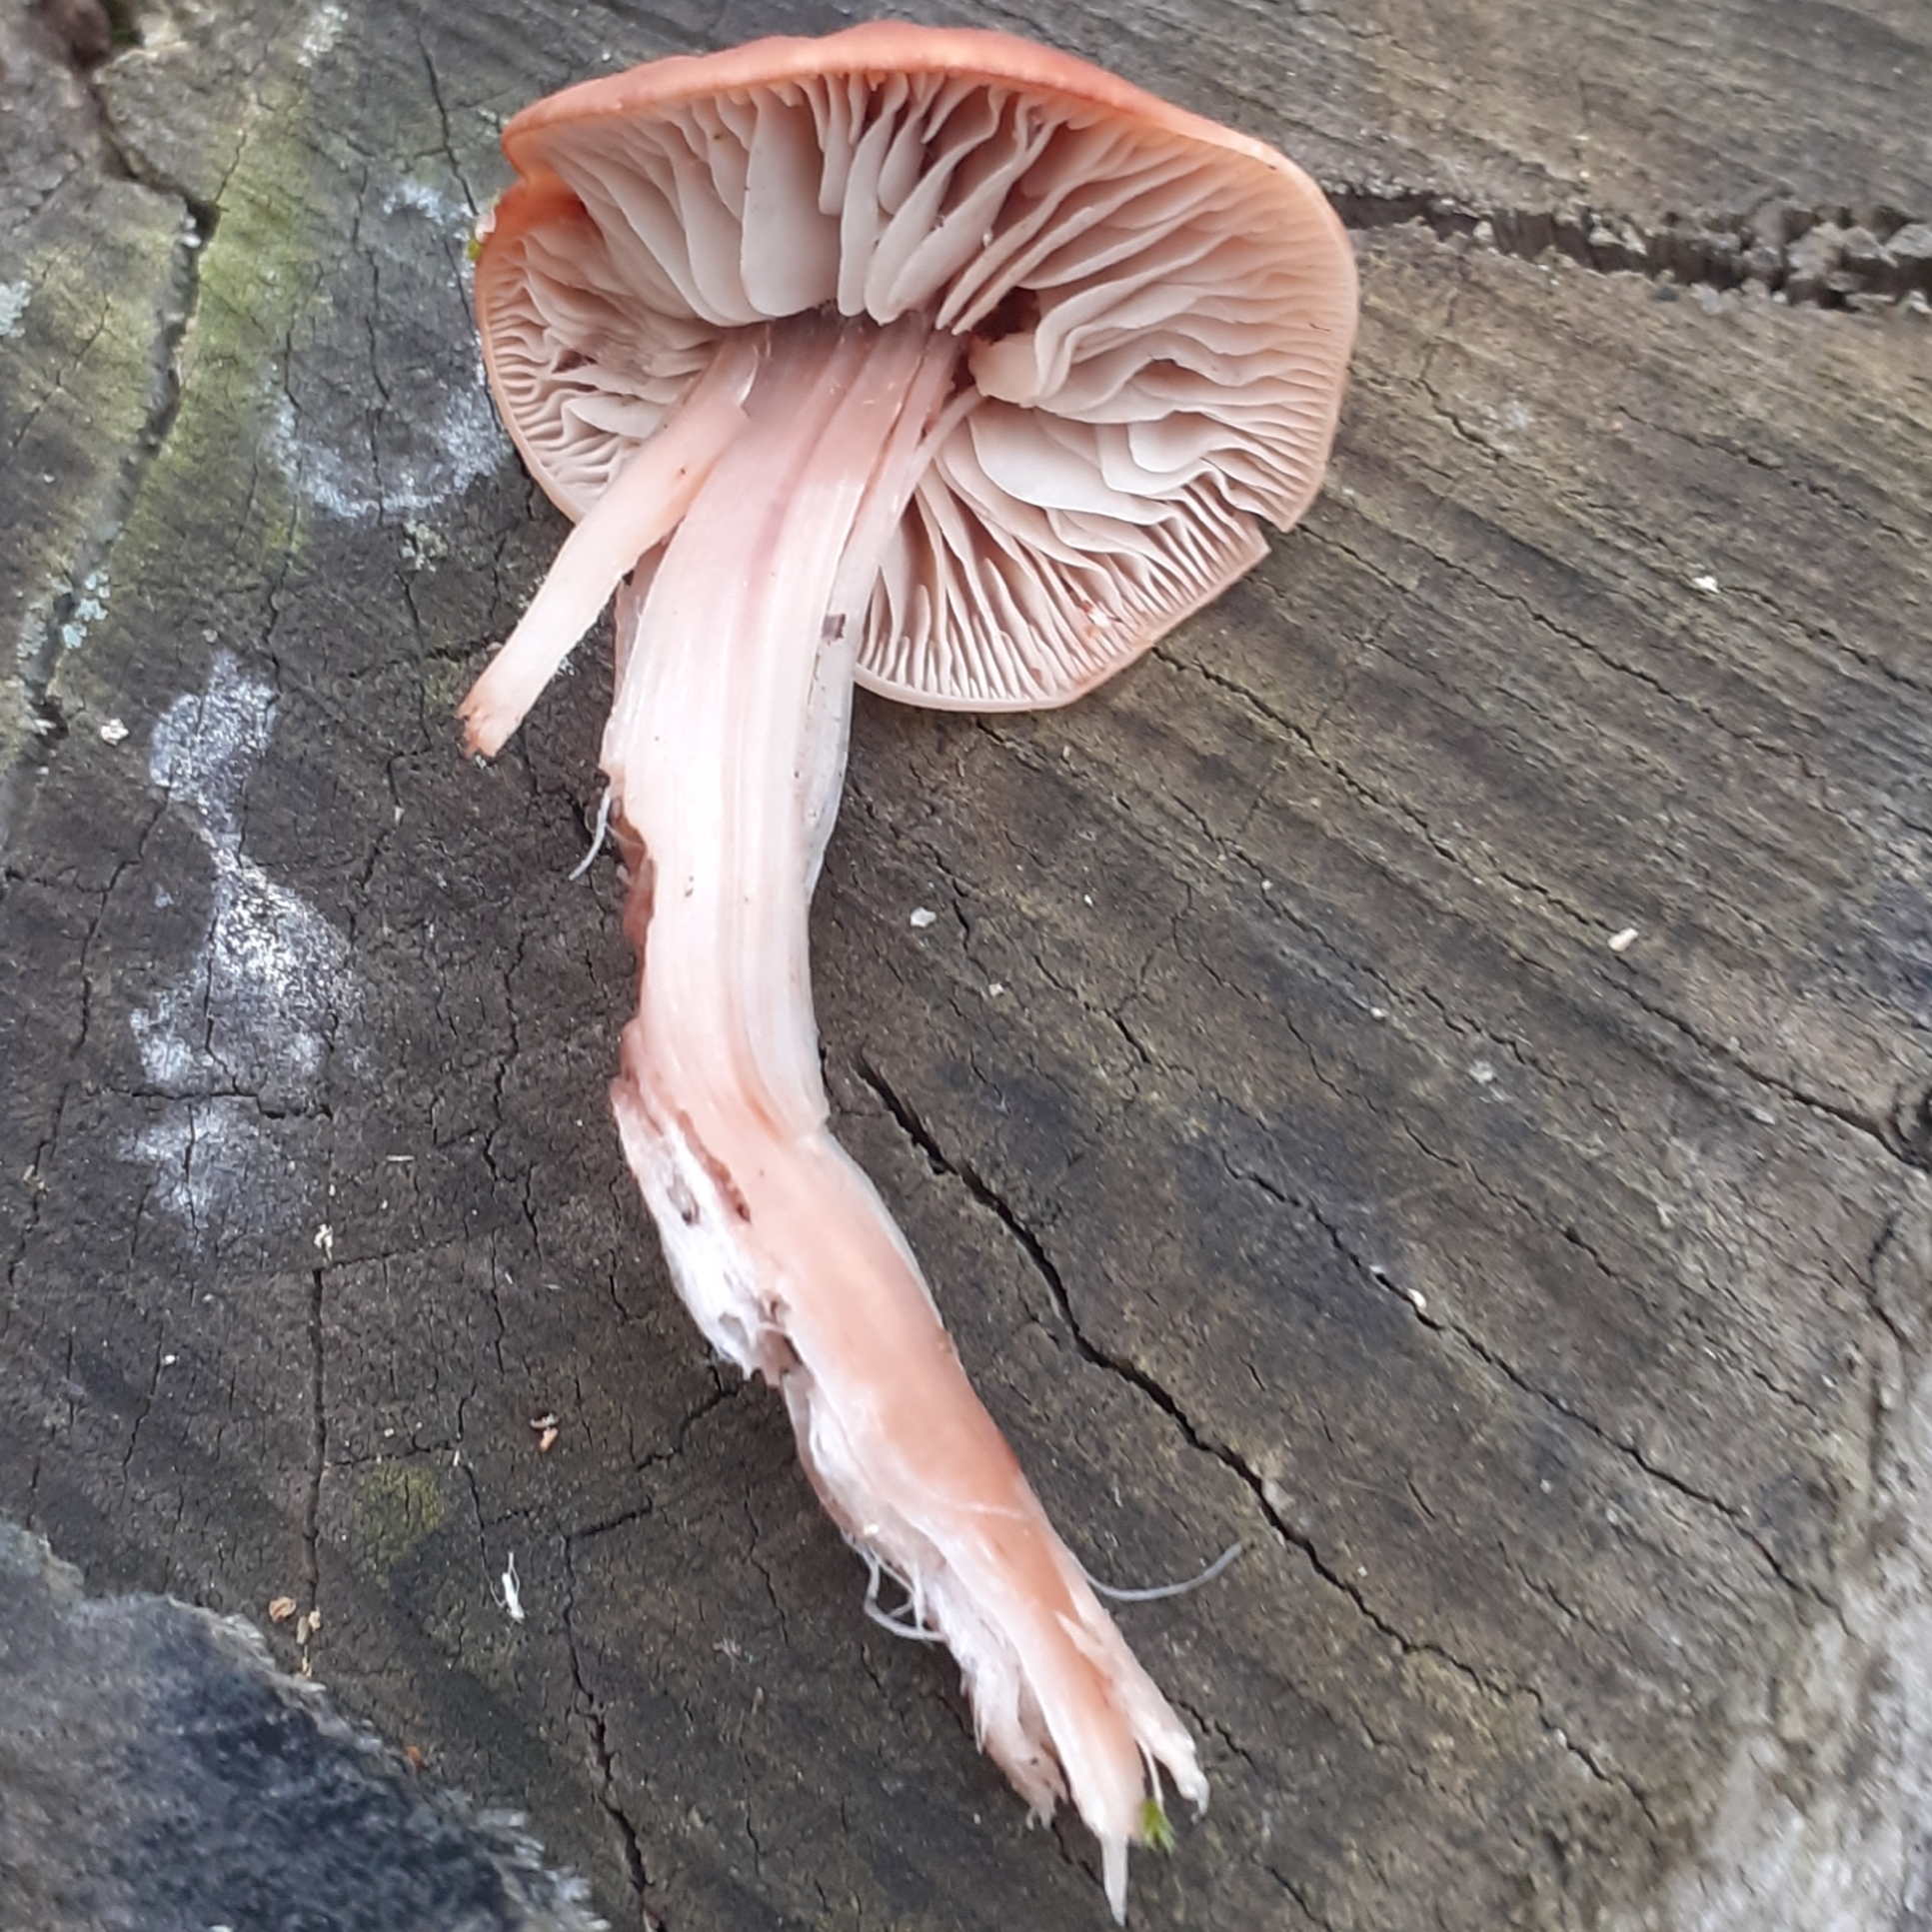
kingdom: Fungi
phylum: Basidiomycota
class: Agaricomycetes
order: Agaricales
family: Omphalotaceae
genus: Gymnopus
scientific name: Gymnopus fusipes
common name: Spindle shank
